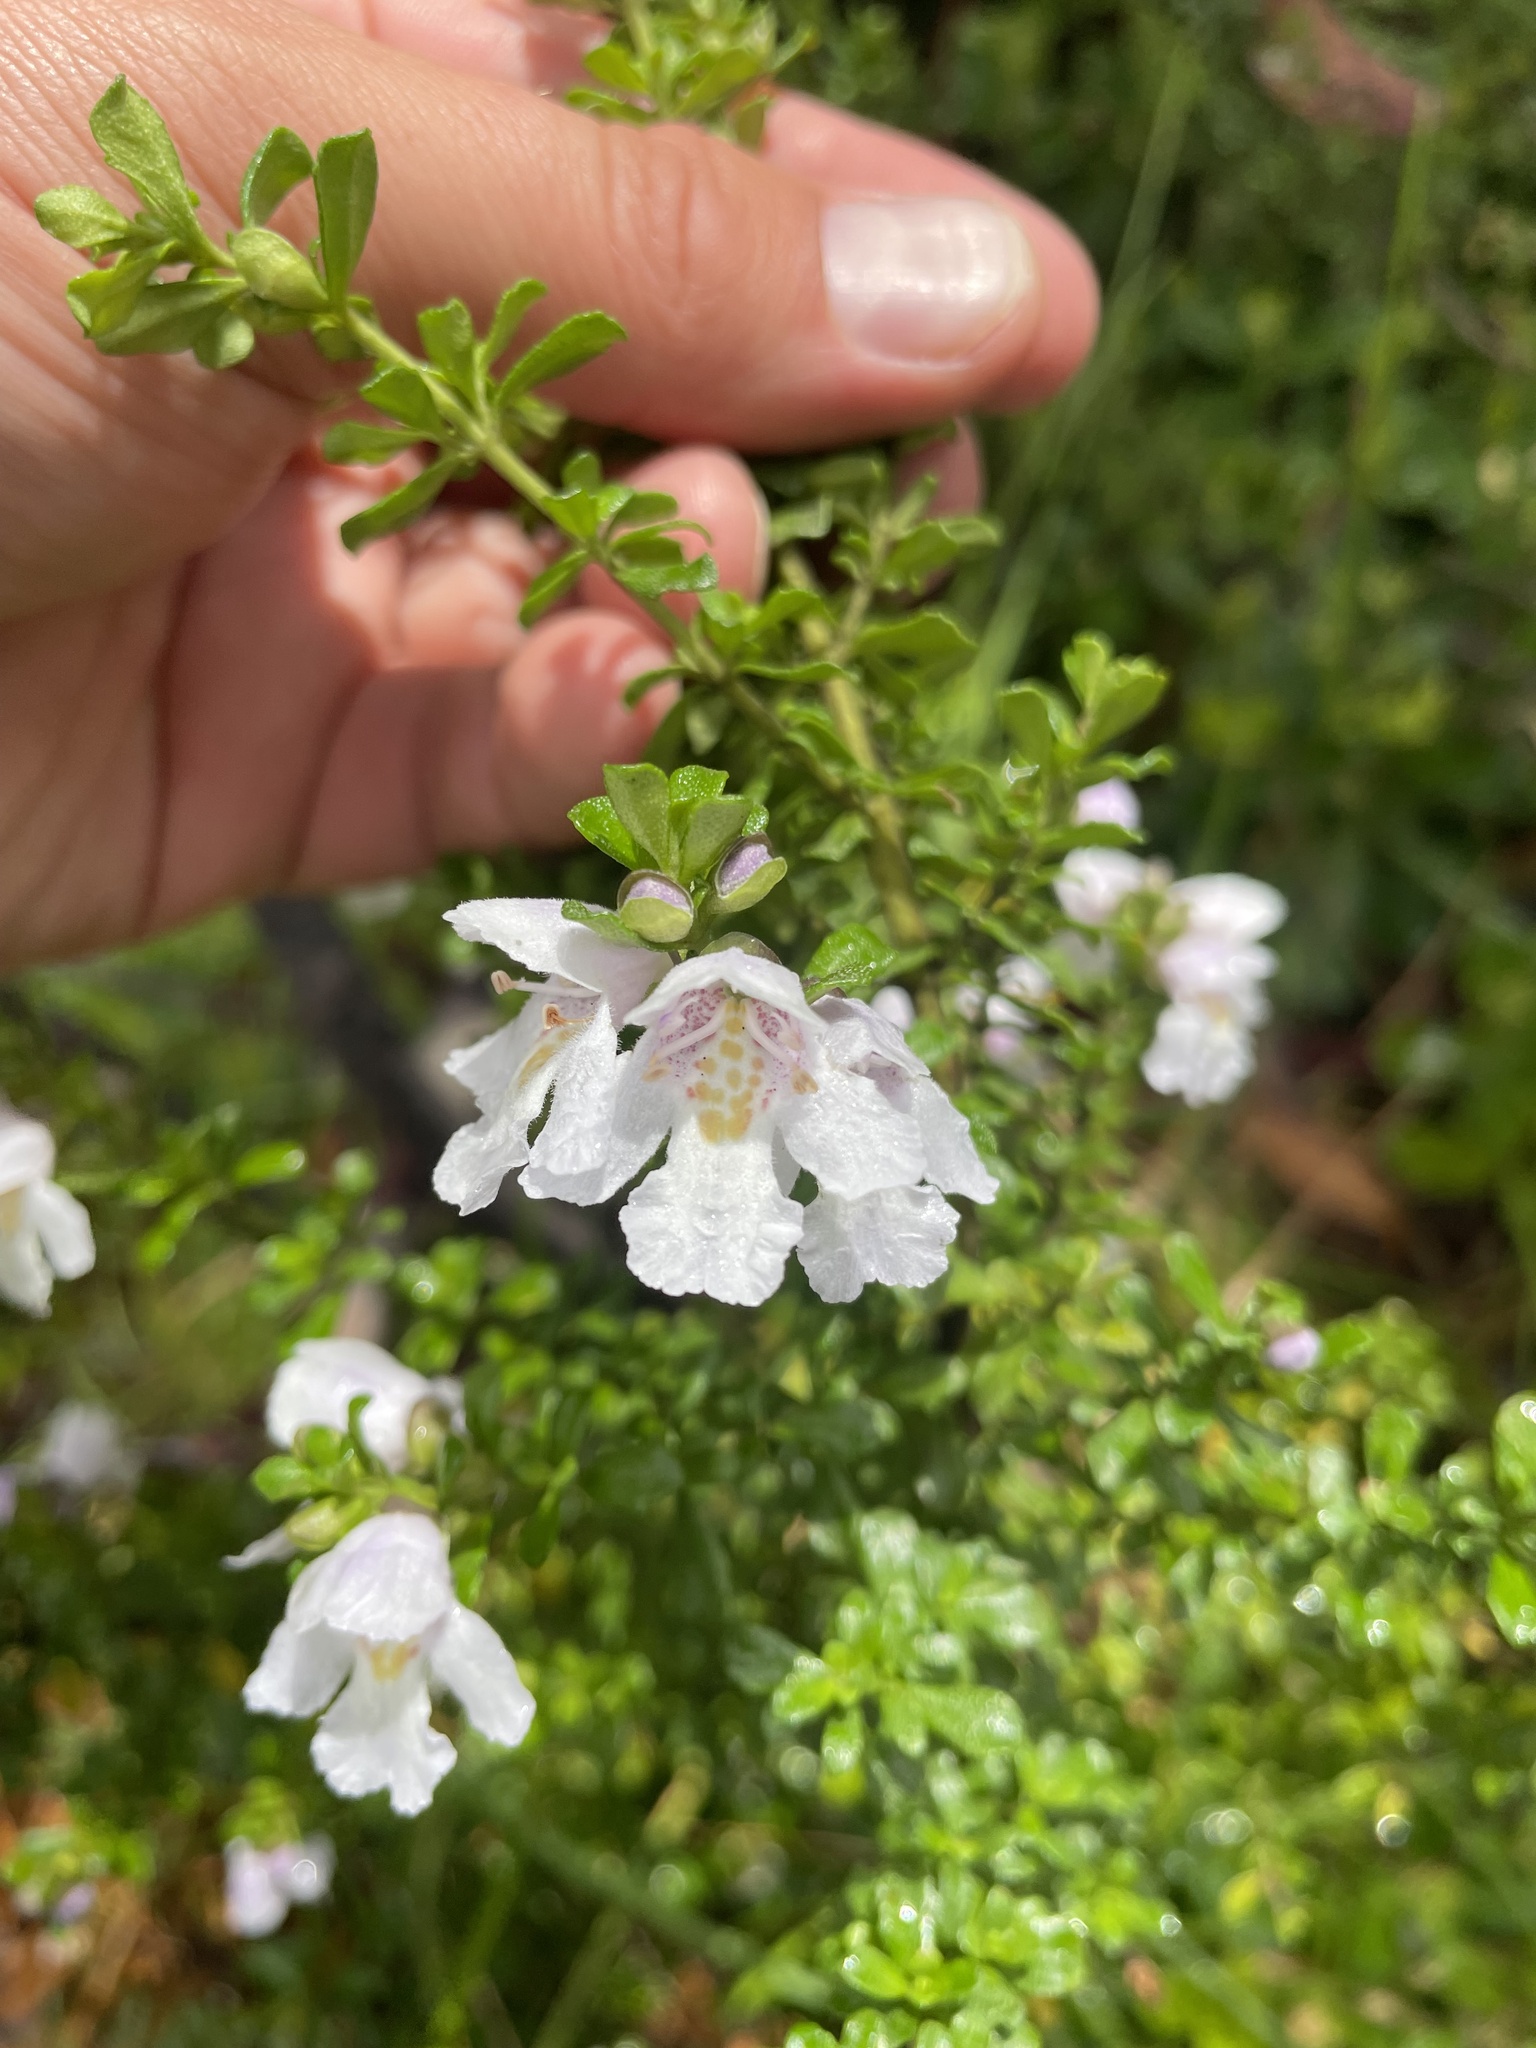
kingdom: Plantae
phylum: Tracheophyta
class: Magnoliopsida
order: Lamiales
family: Lamiaceae
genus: Prostanthera
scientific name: Prostanthera cuneata
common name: Alpine mintbush
